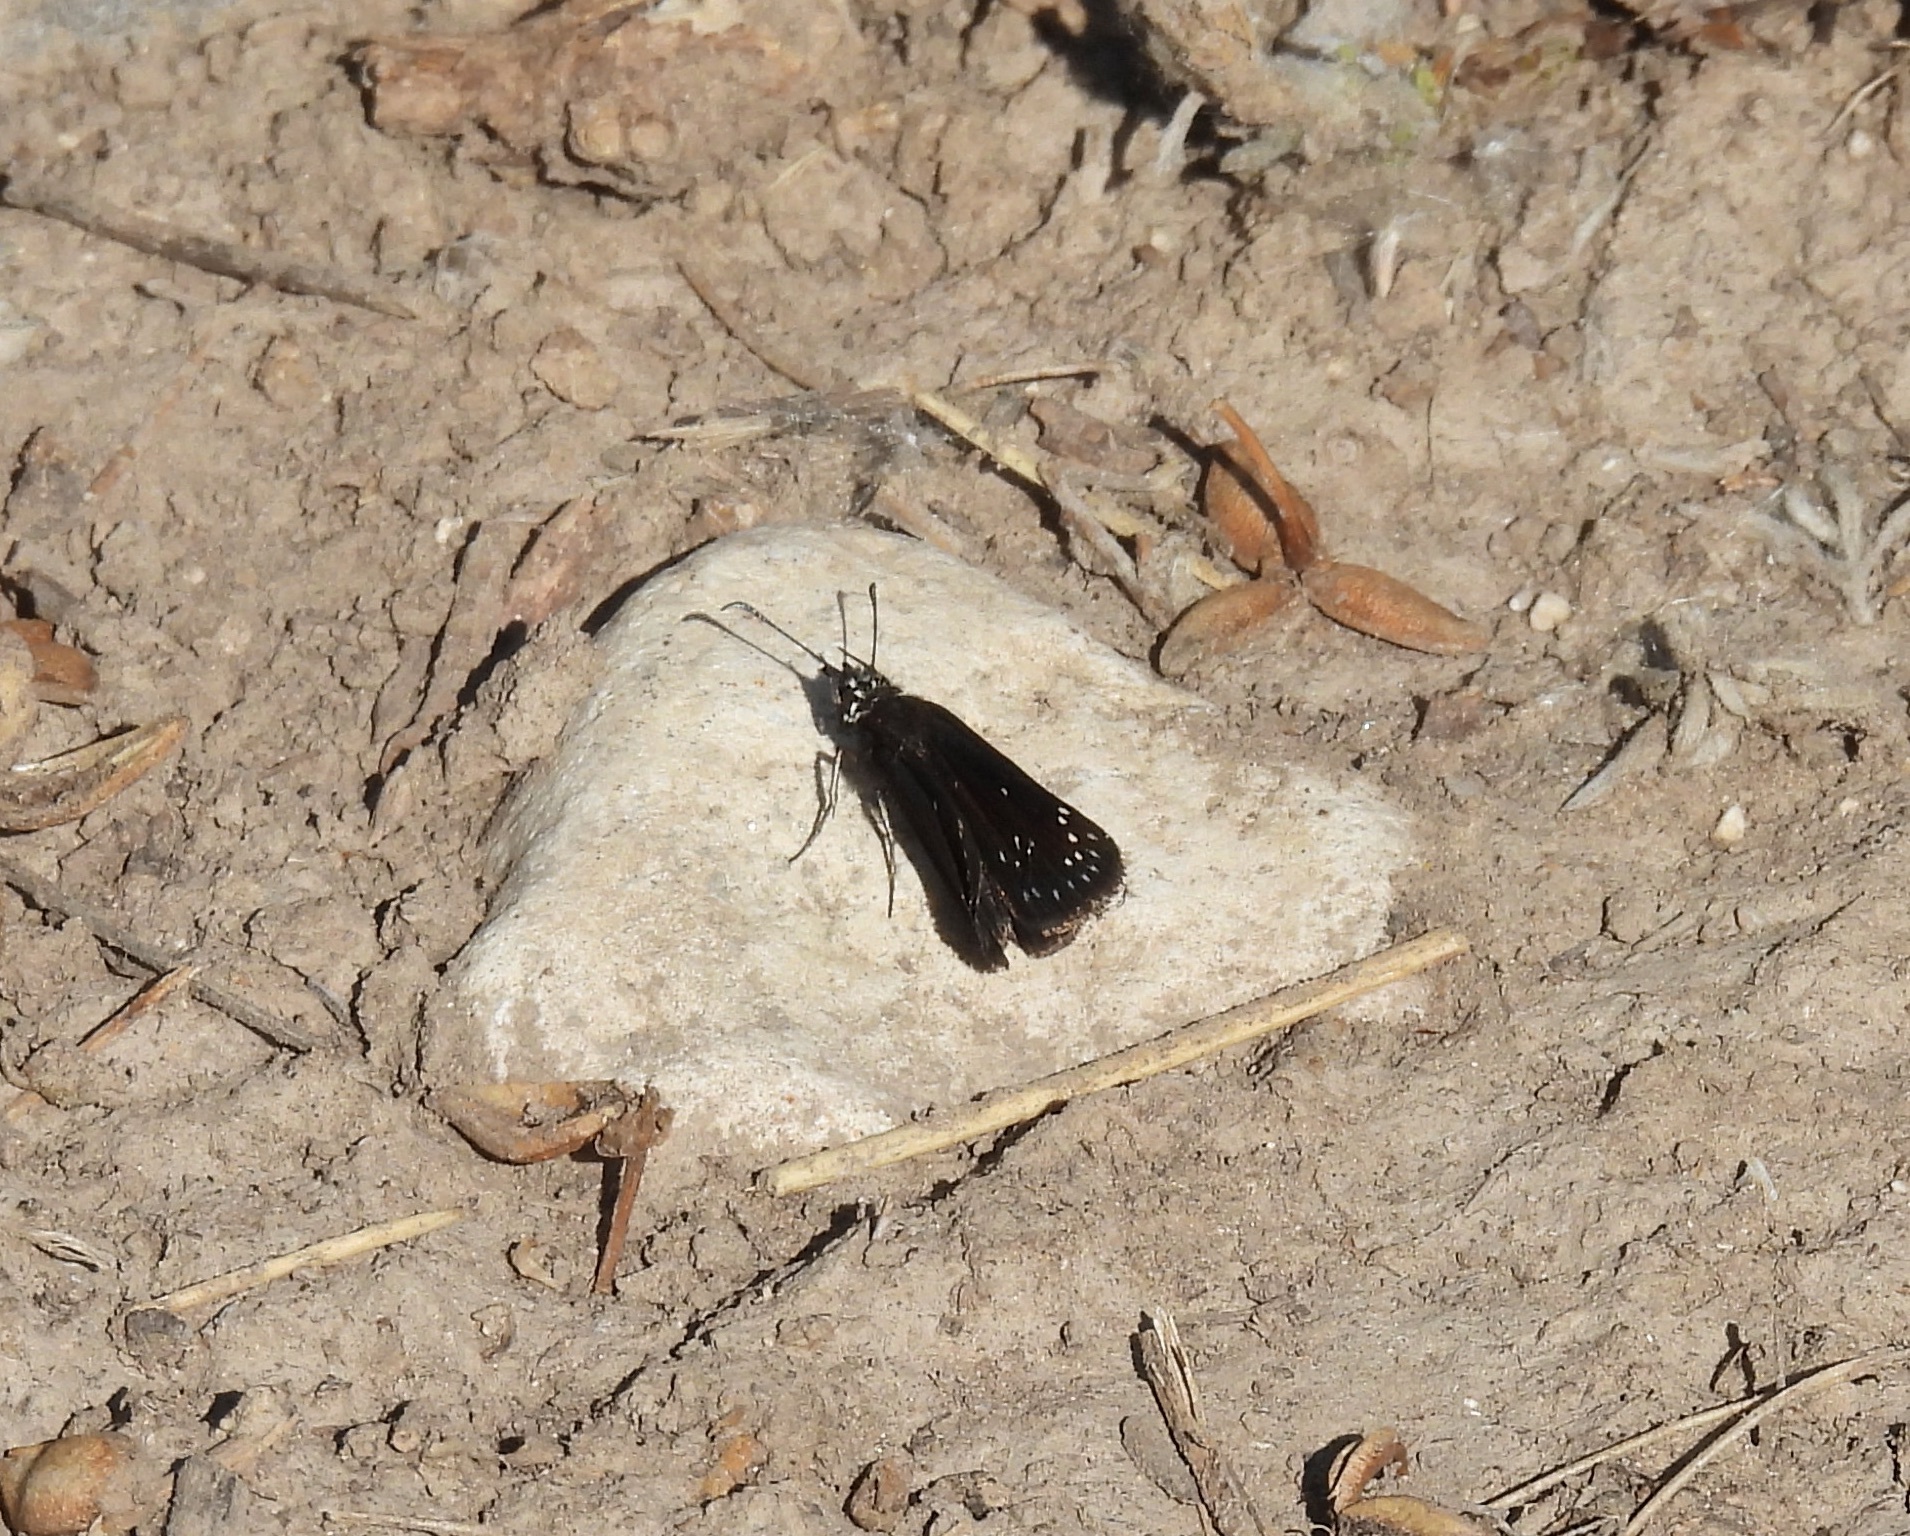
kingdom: Animalia
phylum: Arthropoda
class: Insecta
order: Lepidoptera
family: Hesperiidae
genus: Pholisora
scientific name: Pholisora catullus
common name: Common sootywing
